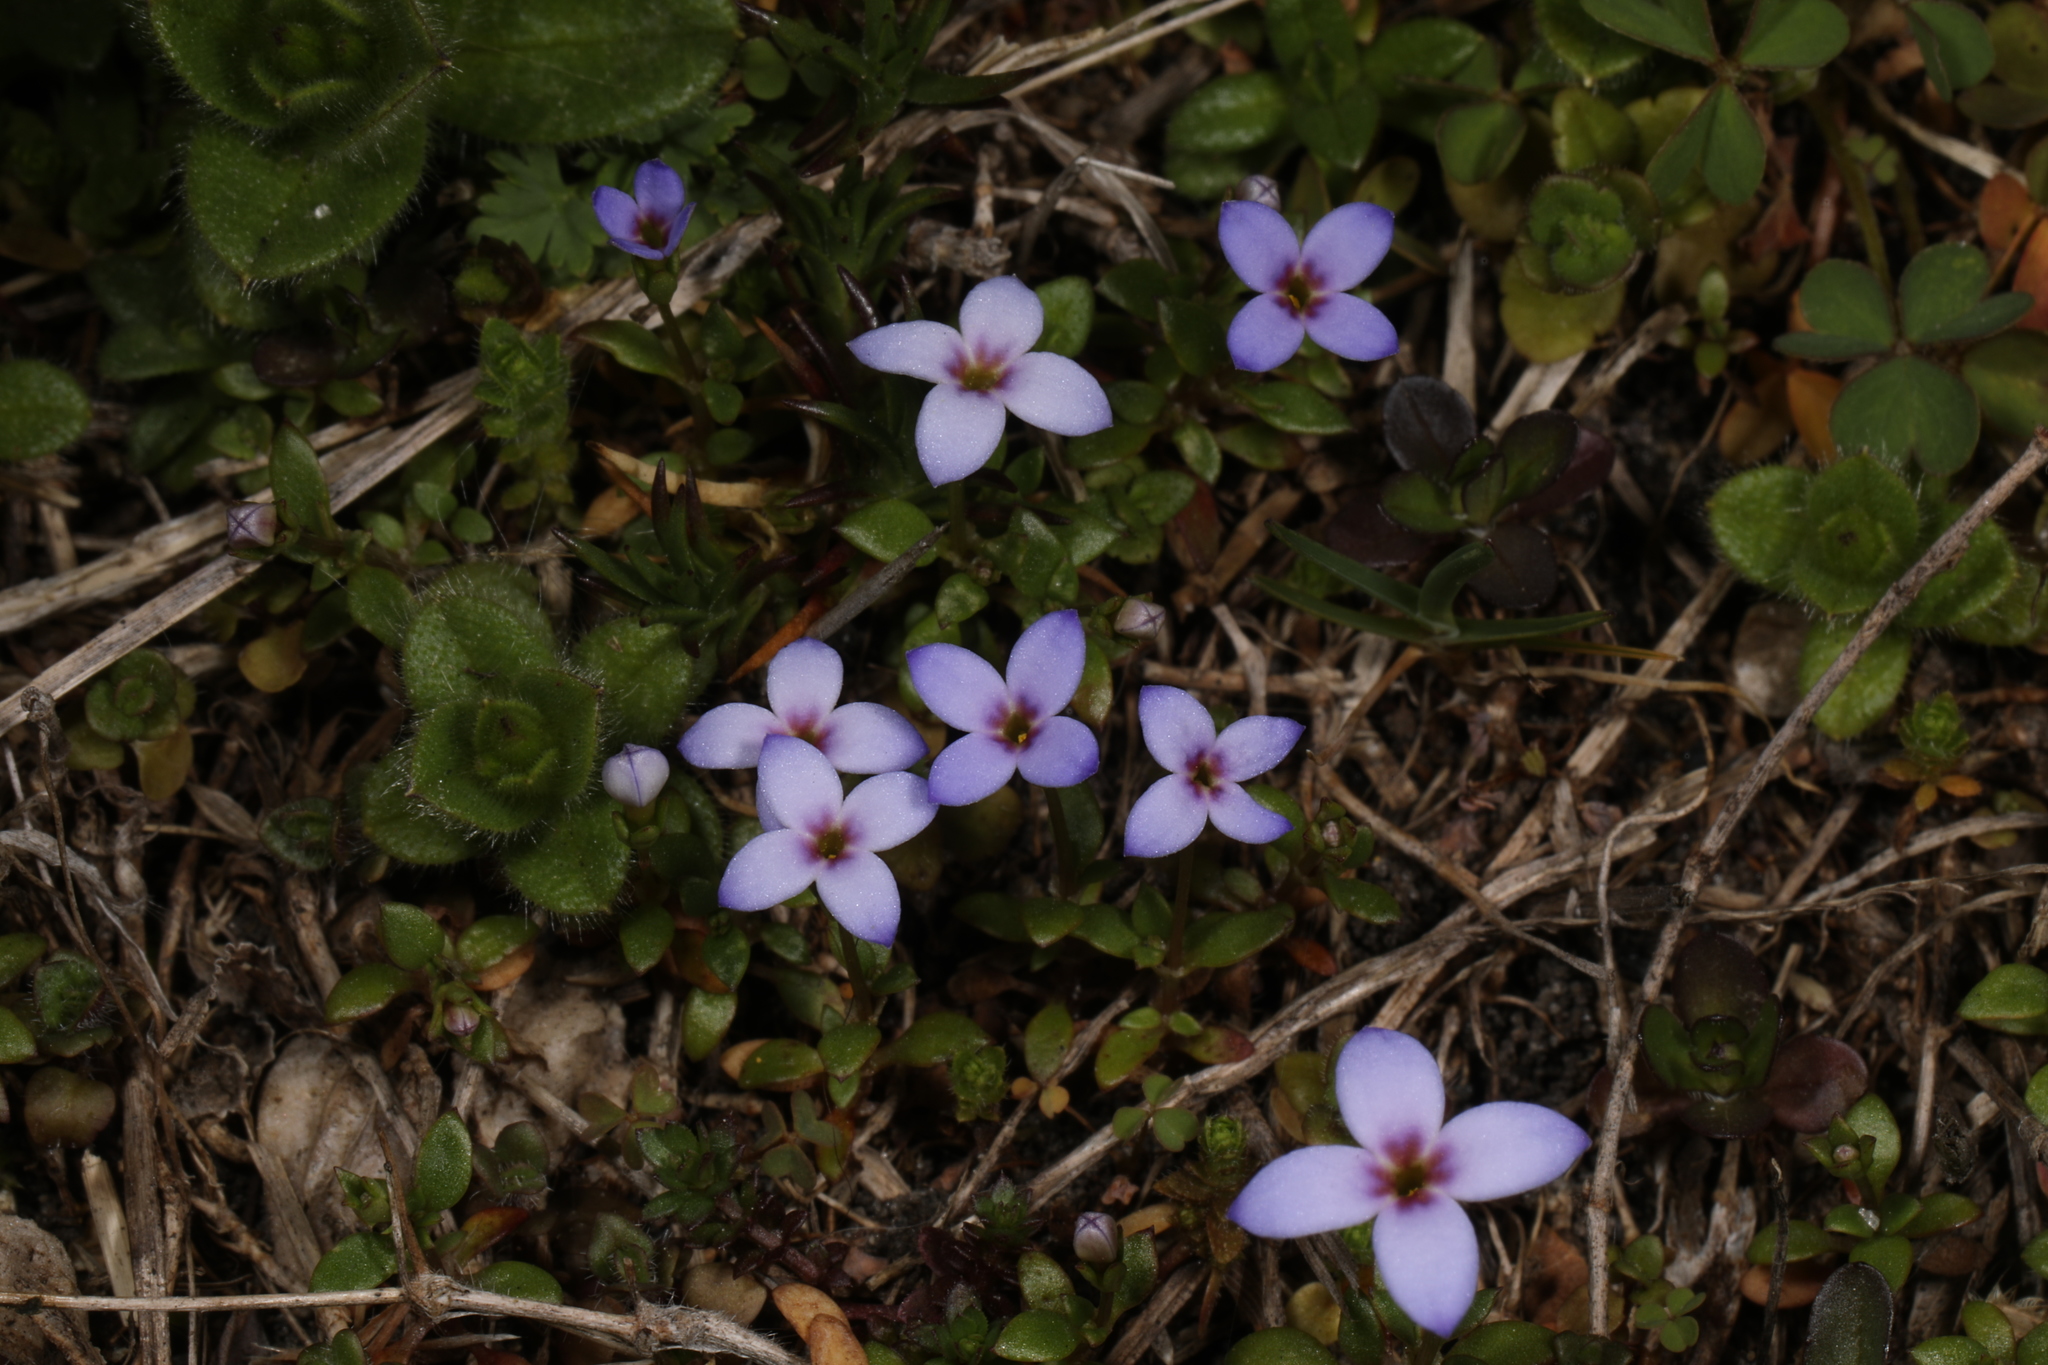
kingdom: Plantae
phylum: Tracheophyta
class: Magnoliopsida
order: Gentianales
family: Rubiaceae
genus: Houstonia
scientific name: Houstonia pusilla
